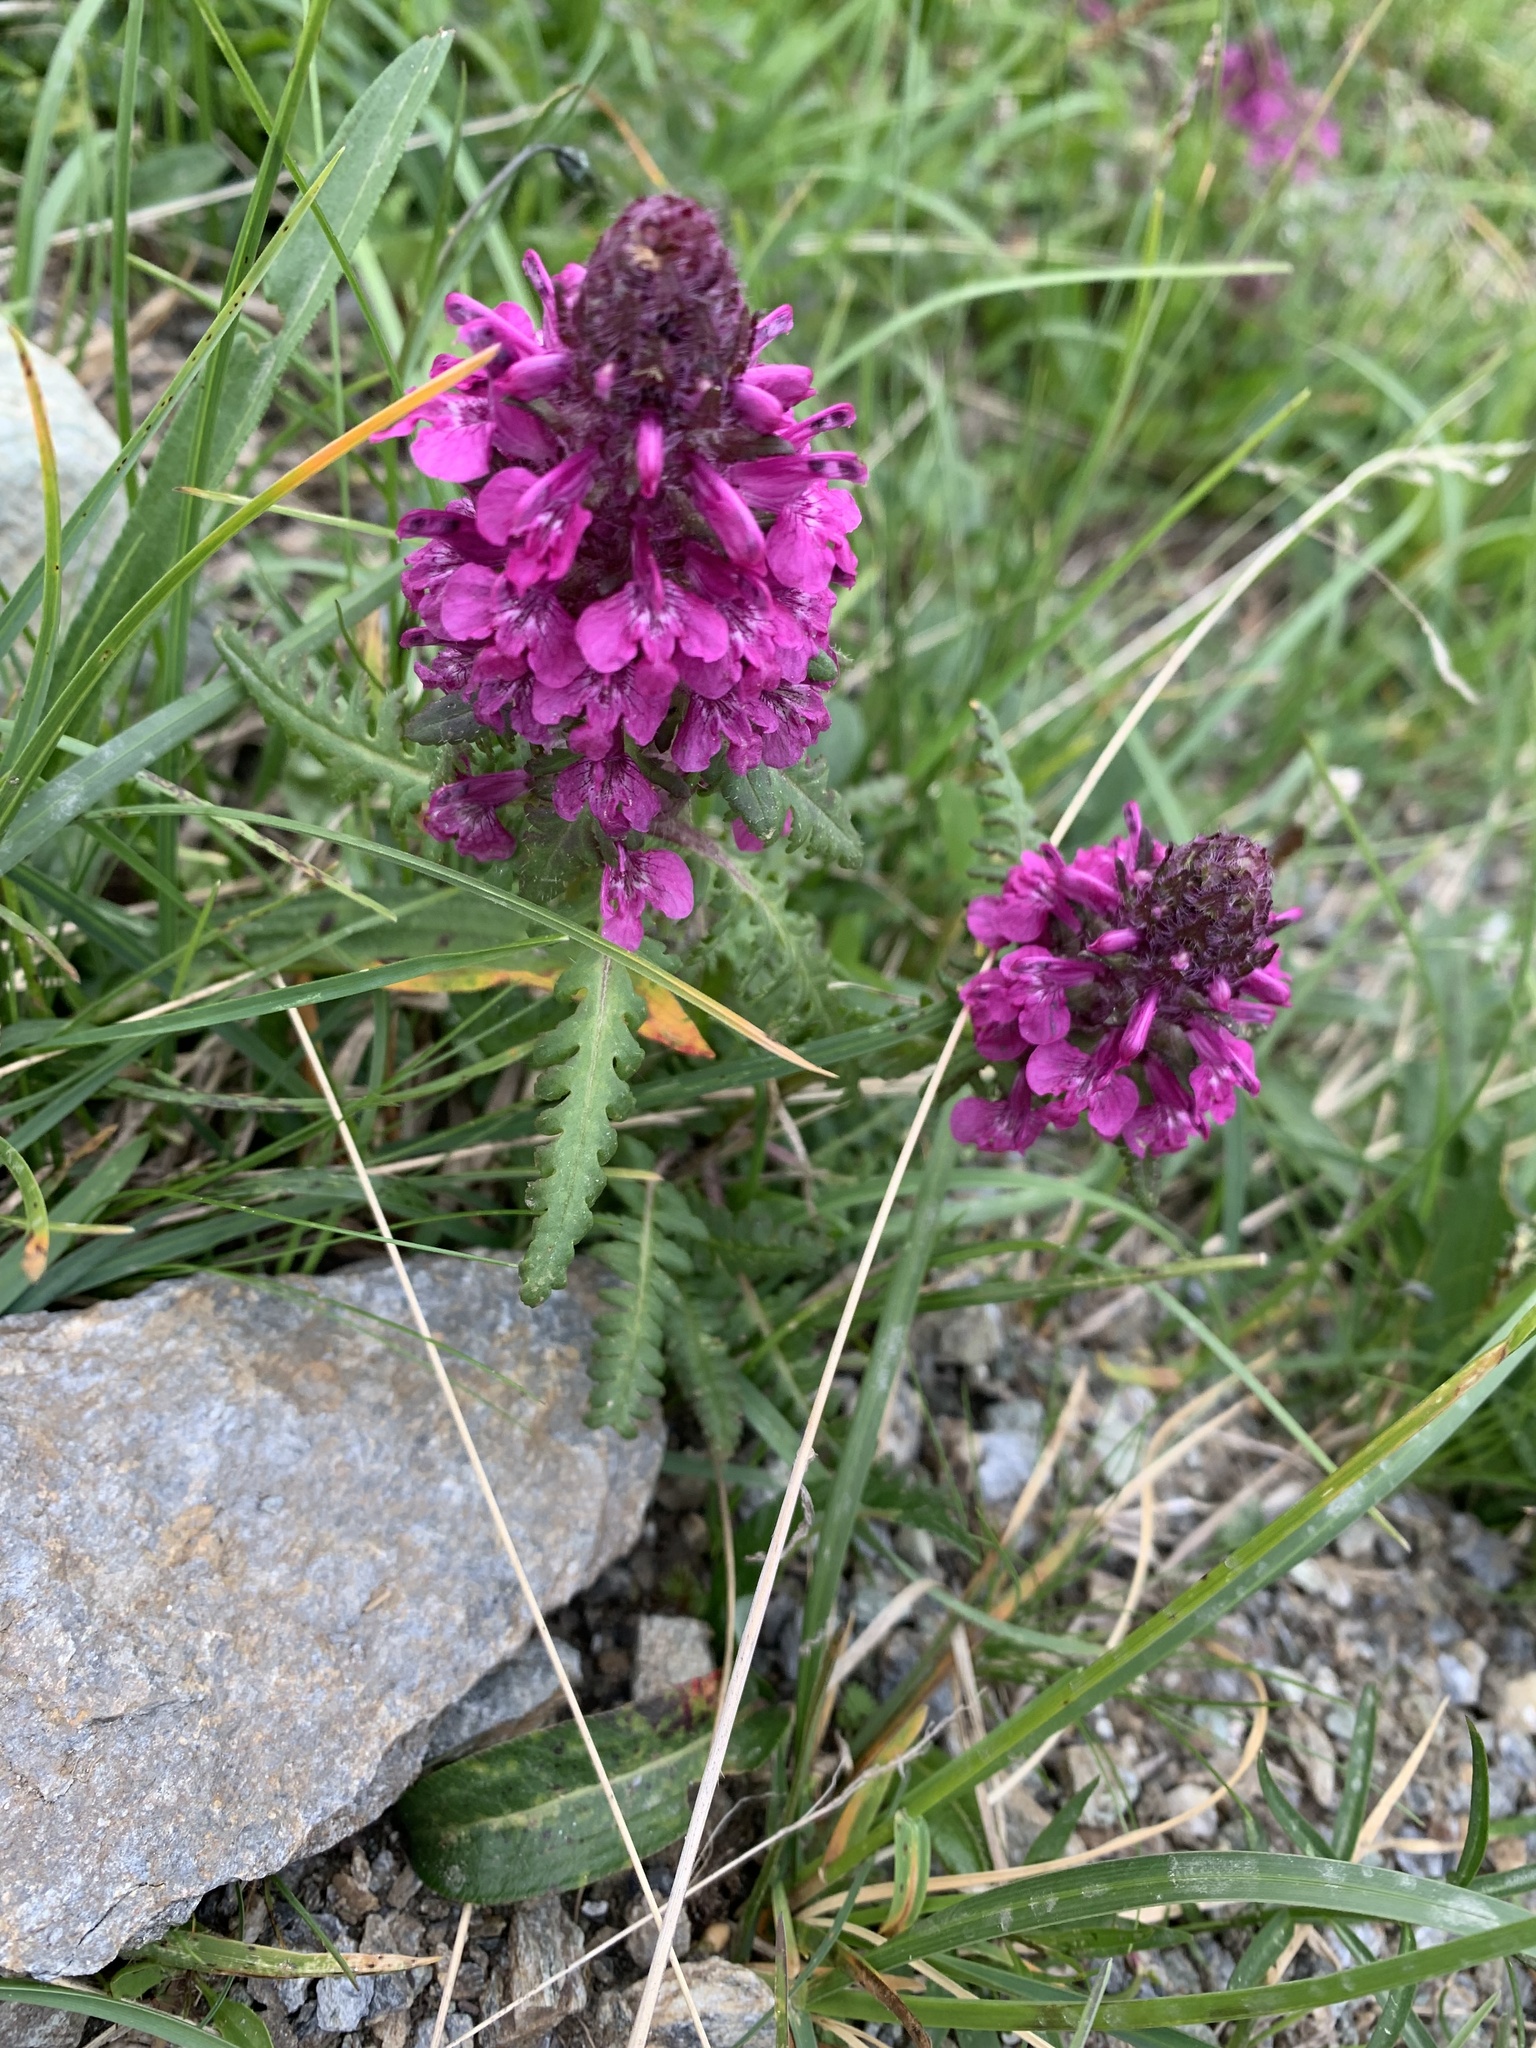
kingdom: Plantae
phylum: Tracheophyta
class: Magnoliopsida
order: Lamiales
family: Orobanchaceae
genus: Pedicularis
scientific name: Pedicularis verticillata
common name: Whorled lousewort
